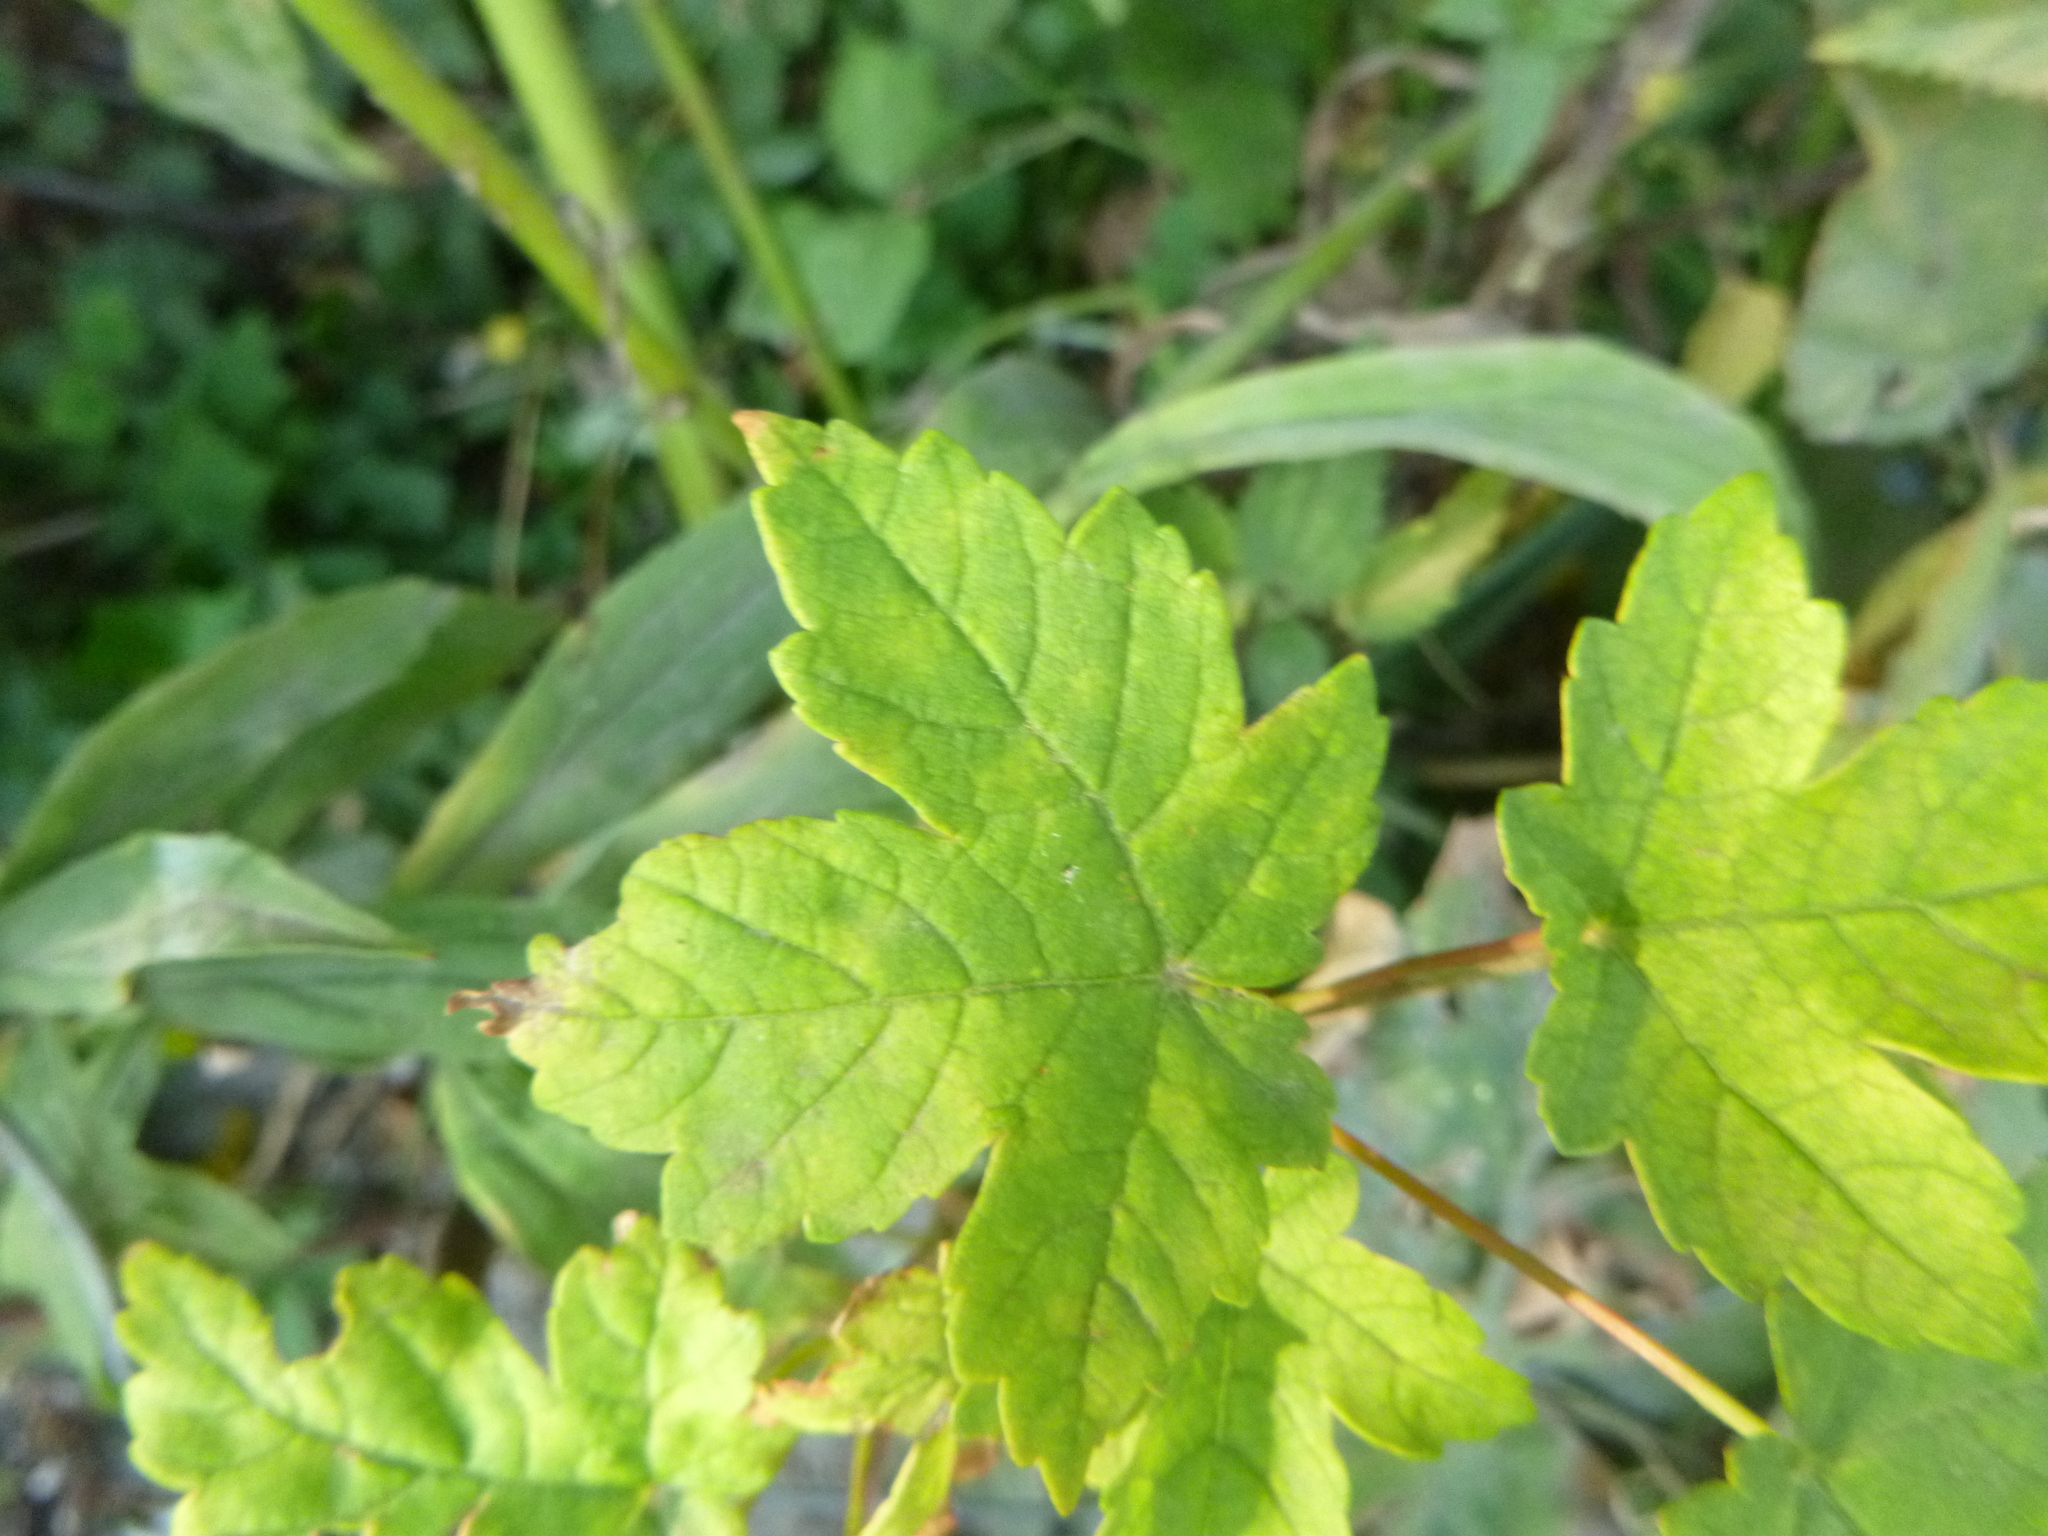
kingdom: Plantae
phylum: Tracheophyta
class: Magnoliopsida
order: Sapindales
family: Sapindaceae
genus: Acer
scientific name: Acer pseudoplatanus
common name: Sycamore
